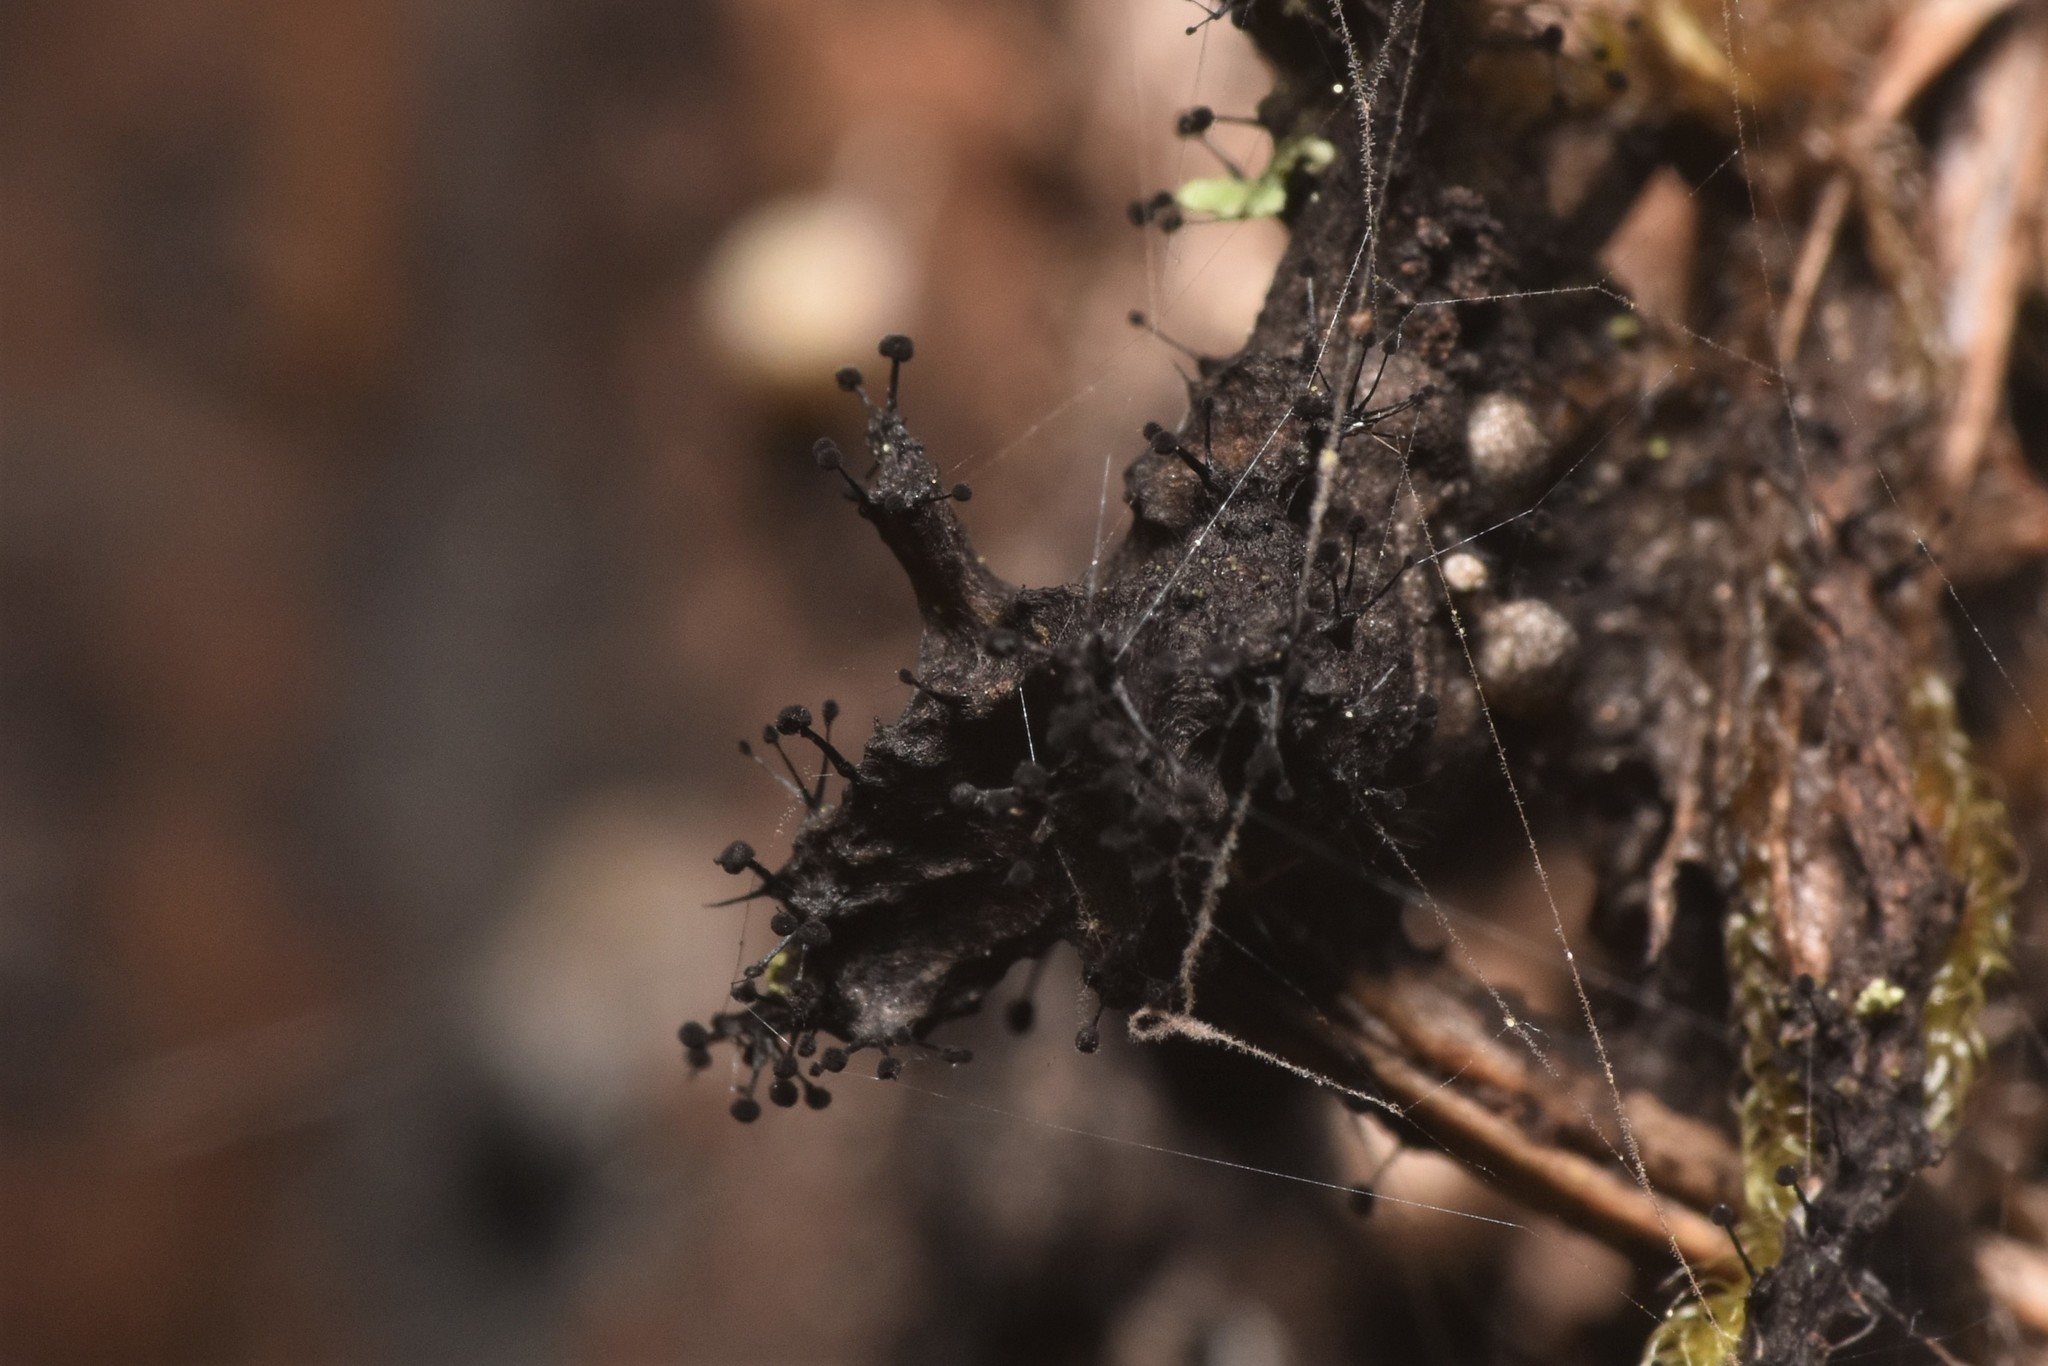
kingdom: Fungi
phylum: Ascomycota
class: Leotiomycetes
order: Helotiales
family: Amorphothecaceae
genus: Sorocybe
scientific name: Sorocybe resinae
